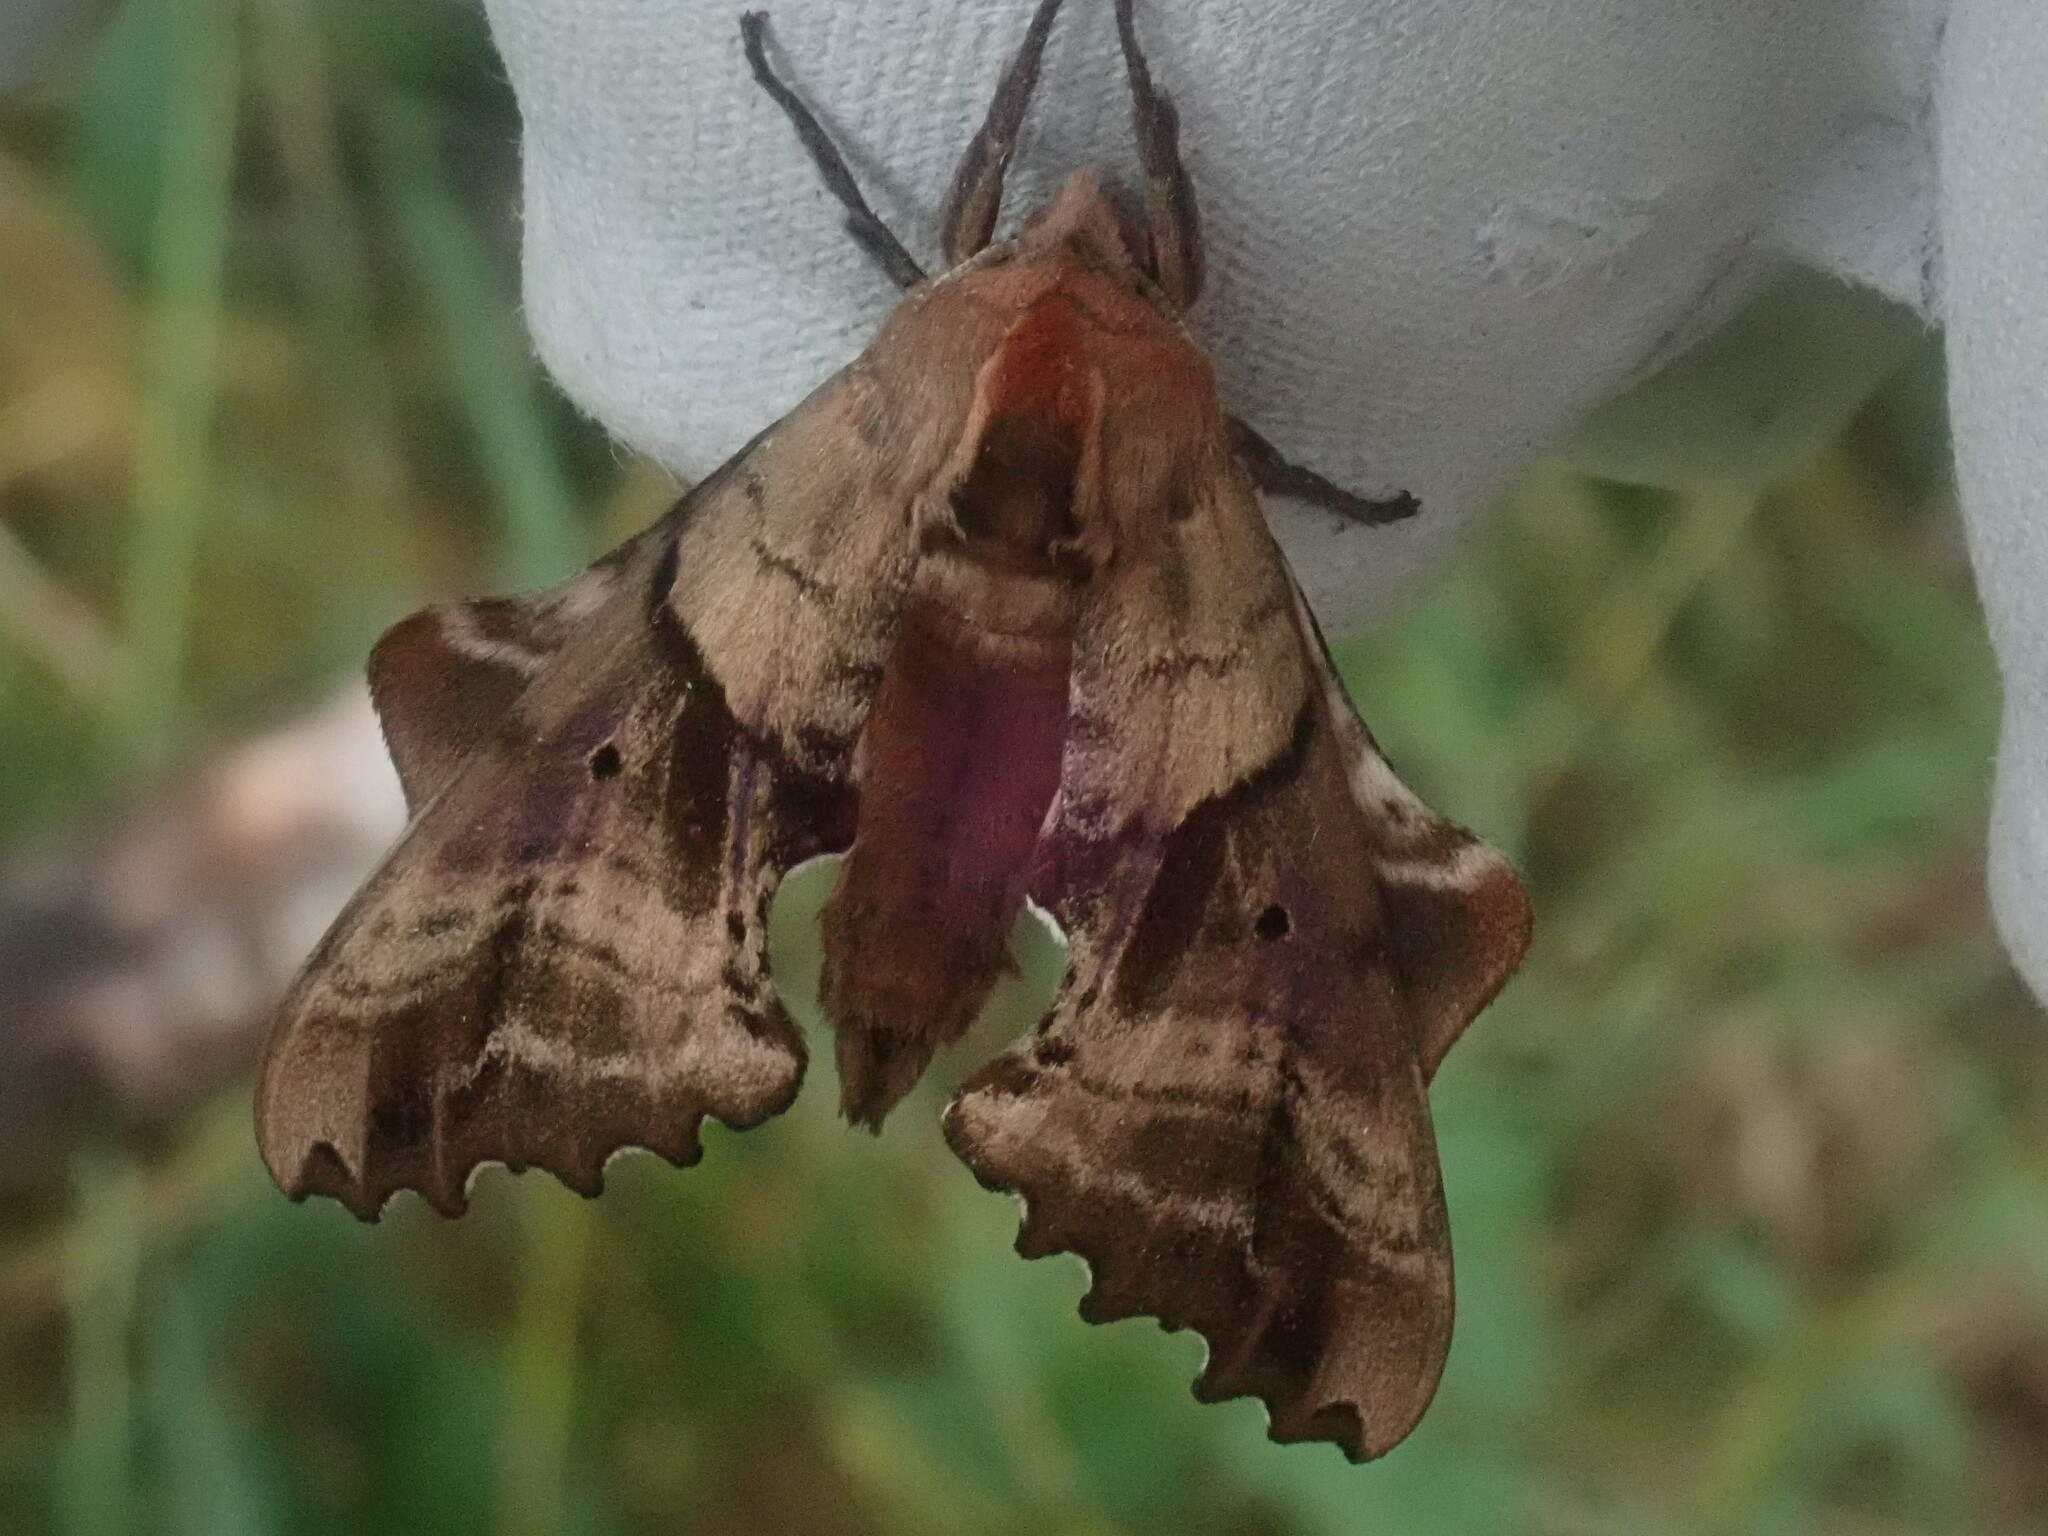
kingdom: Animalia
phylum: Arthropoda
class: Insecta
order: Lepidoptera
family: Sphingidae
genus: Paonias
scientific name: Paonias excaecata
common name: Blind-eyed sphinx
